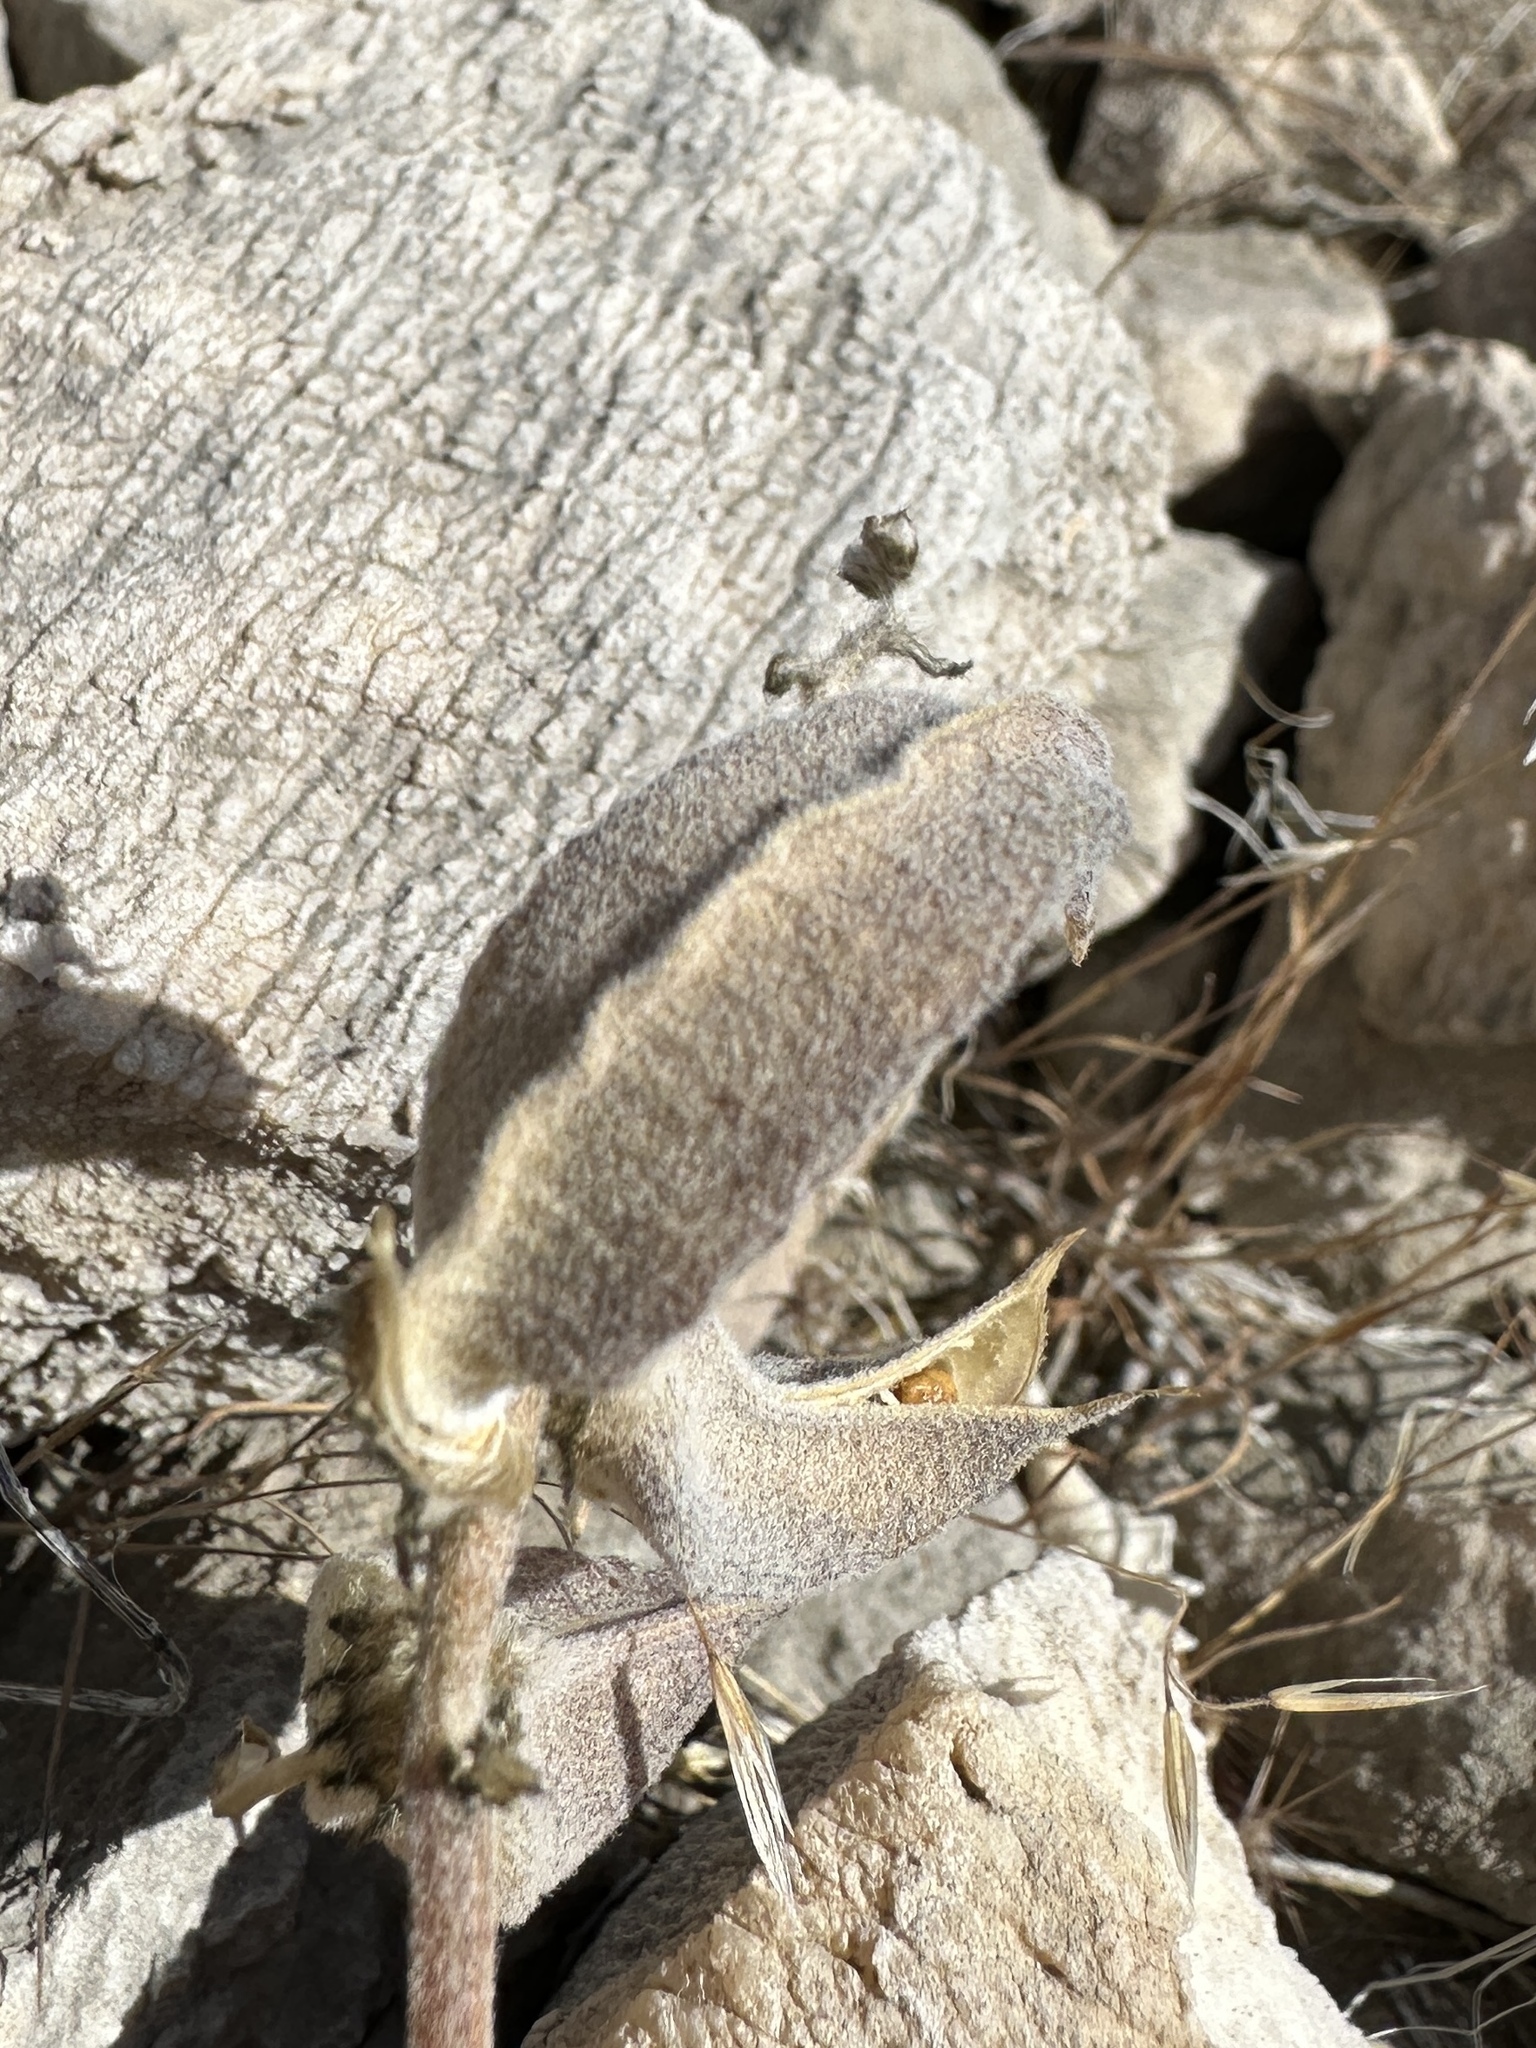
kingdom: Plantae
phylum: Tracheophyta
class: Magnoliopsida
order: Fabales
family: Fabaceae
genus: Astragalus
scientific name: Astragalus albens
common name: Cushenbury milk-vetch
